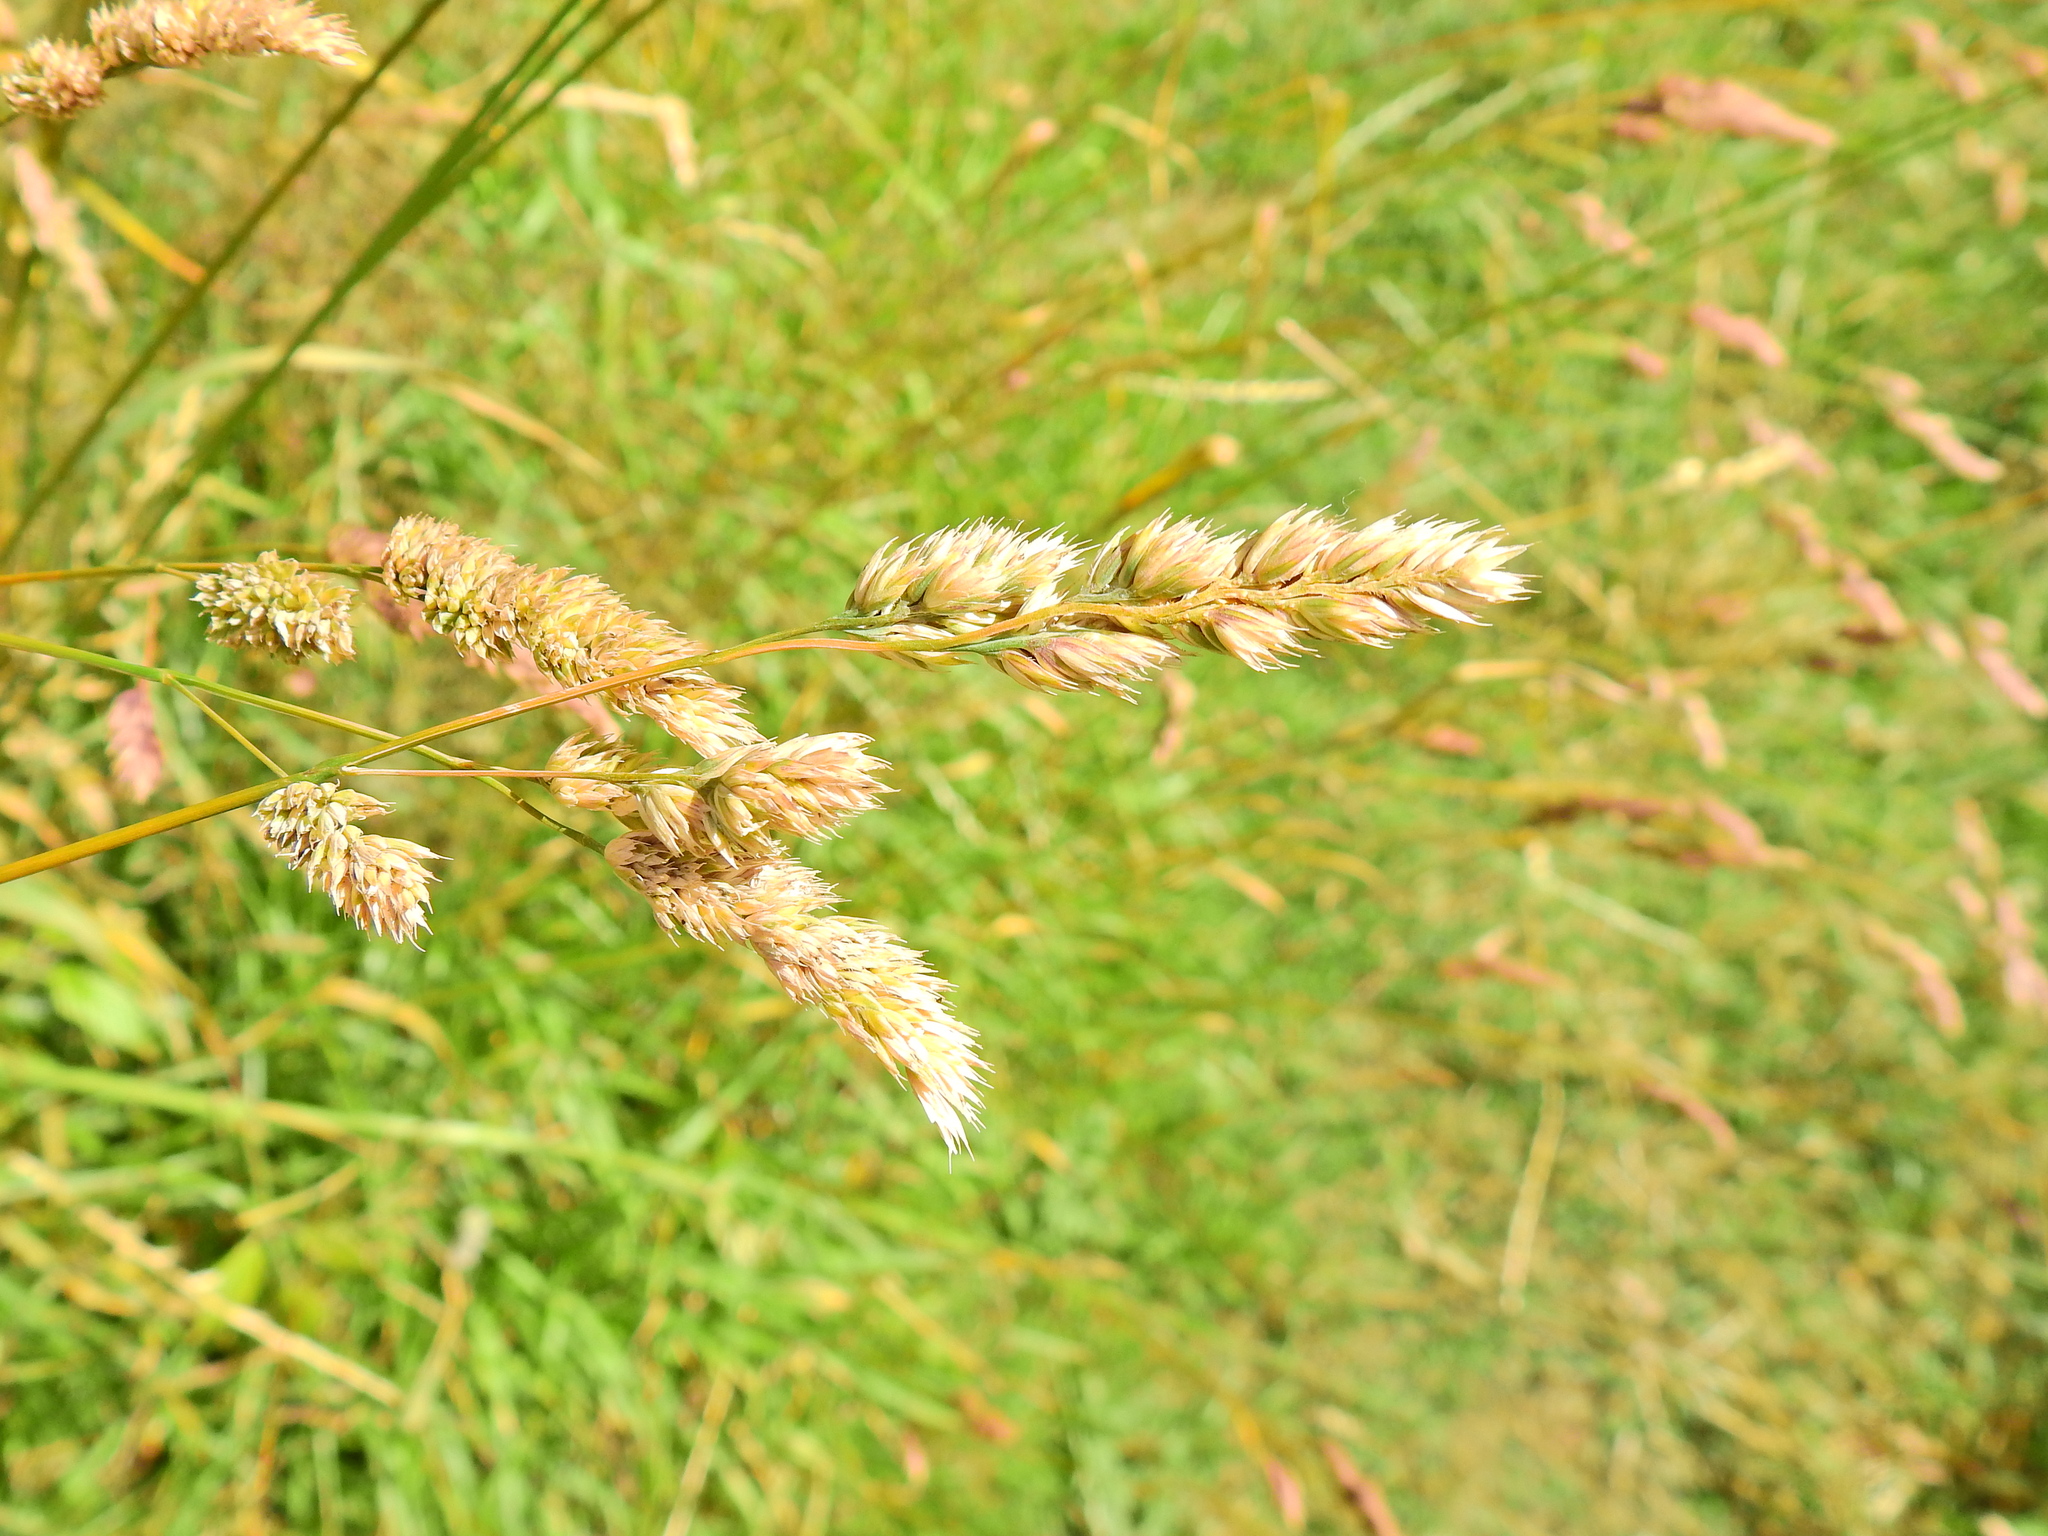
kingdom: Plantae
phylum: Tracheophyta
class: Liliopsida
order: Poales
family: Poaceae
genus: Dactylis
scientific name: Dactylis glomerata
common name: Orchardgrass
